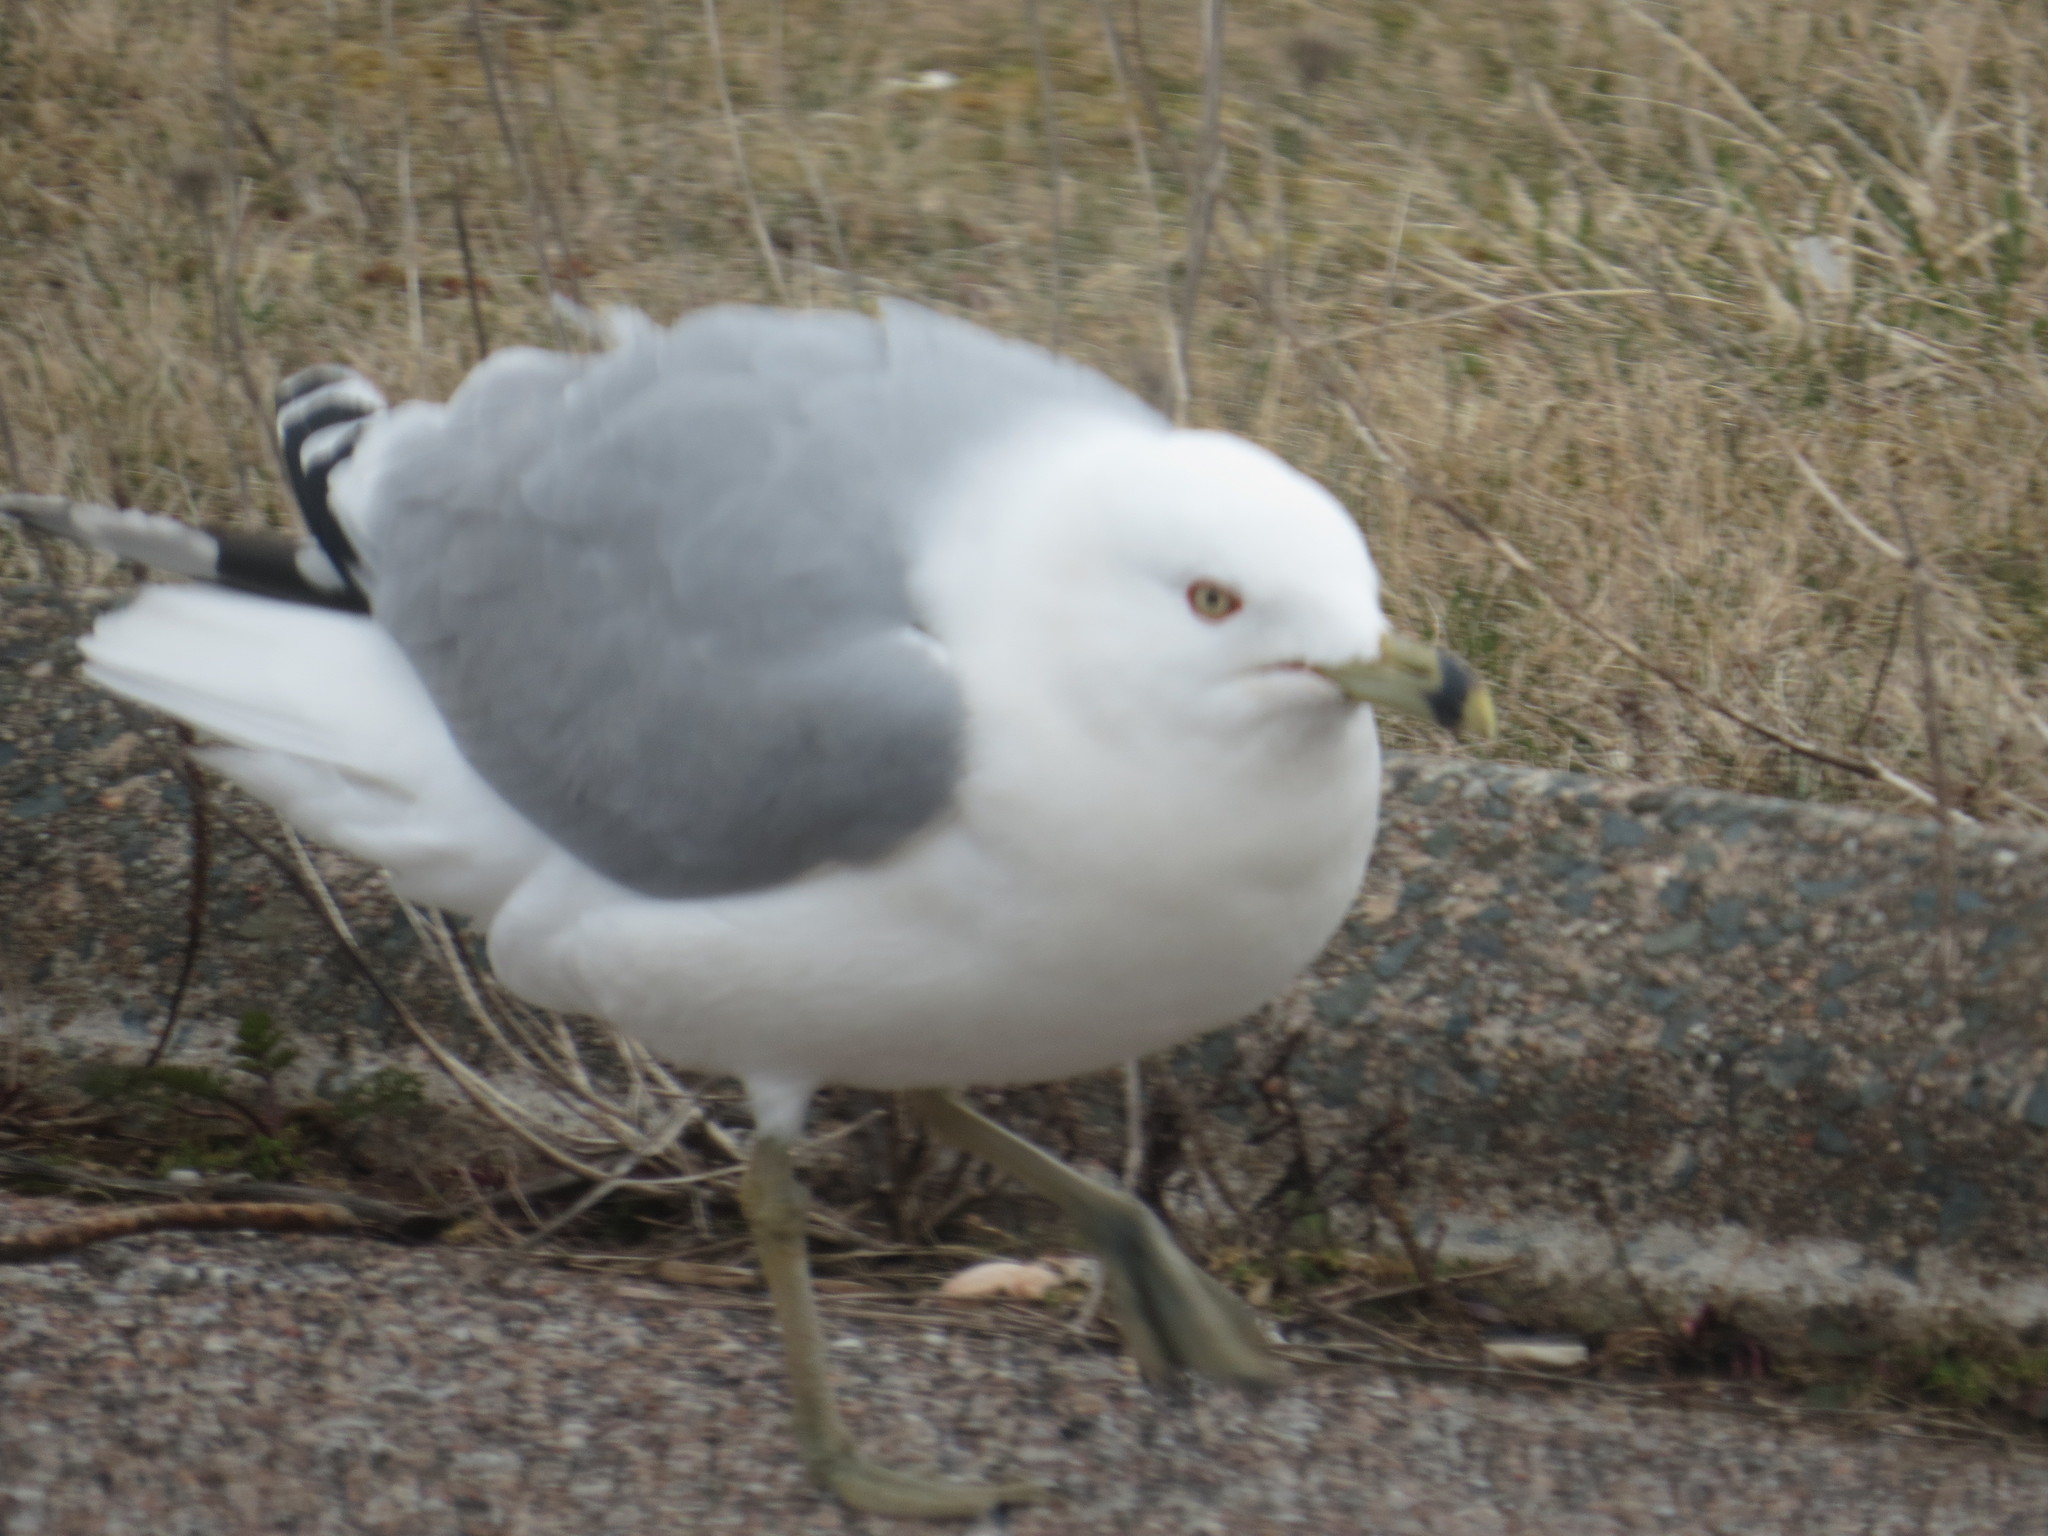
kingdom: Animalia
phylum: Chordata
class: Aves
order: Charadriiformes
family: Laridae
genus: Larus
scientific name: Larus delawarensis
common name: Ring-billed gull
